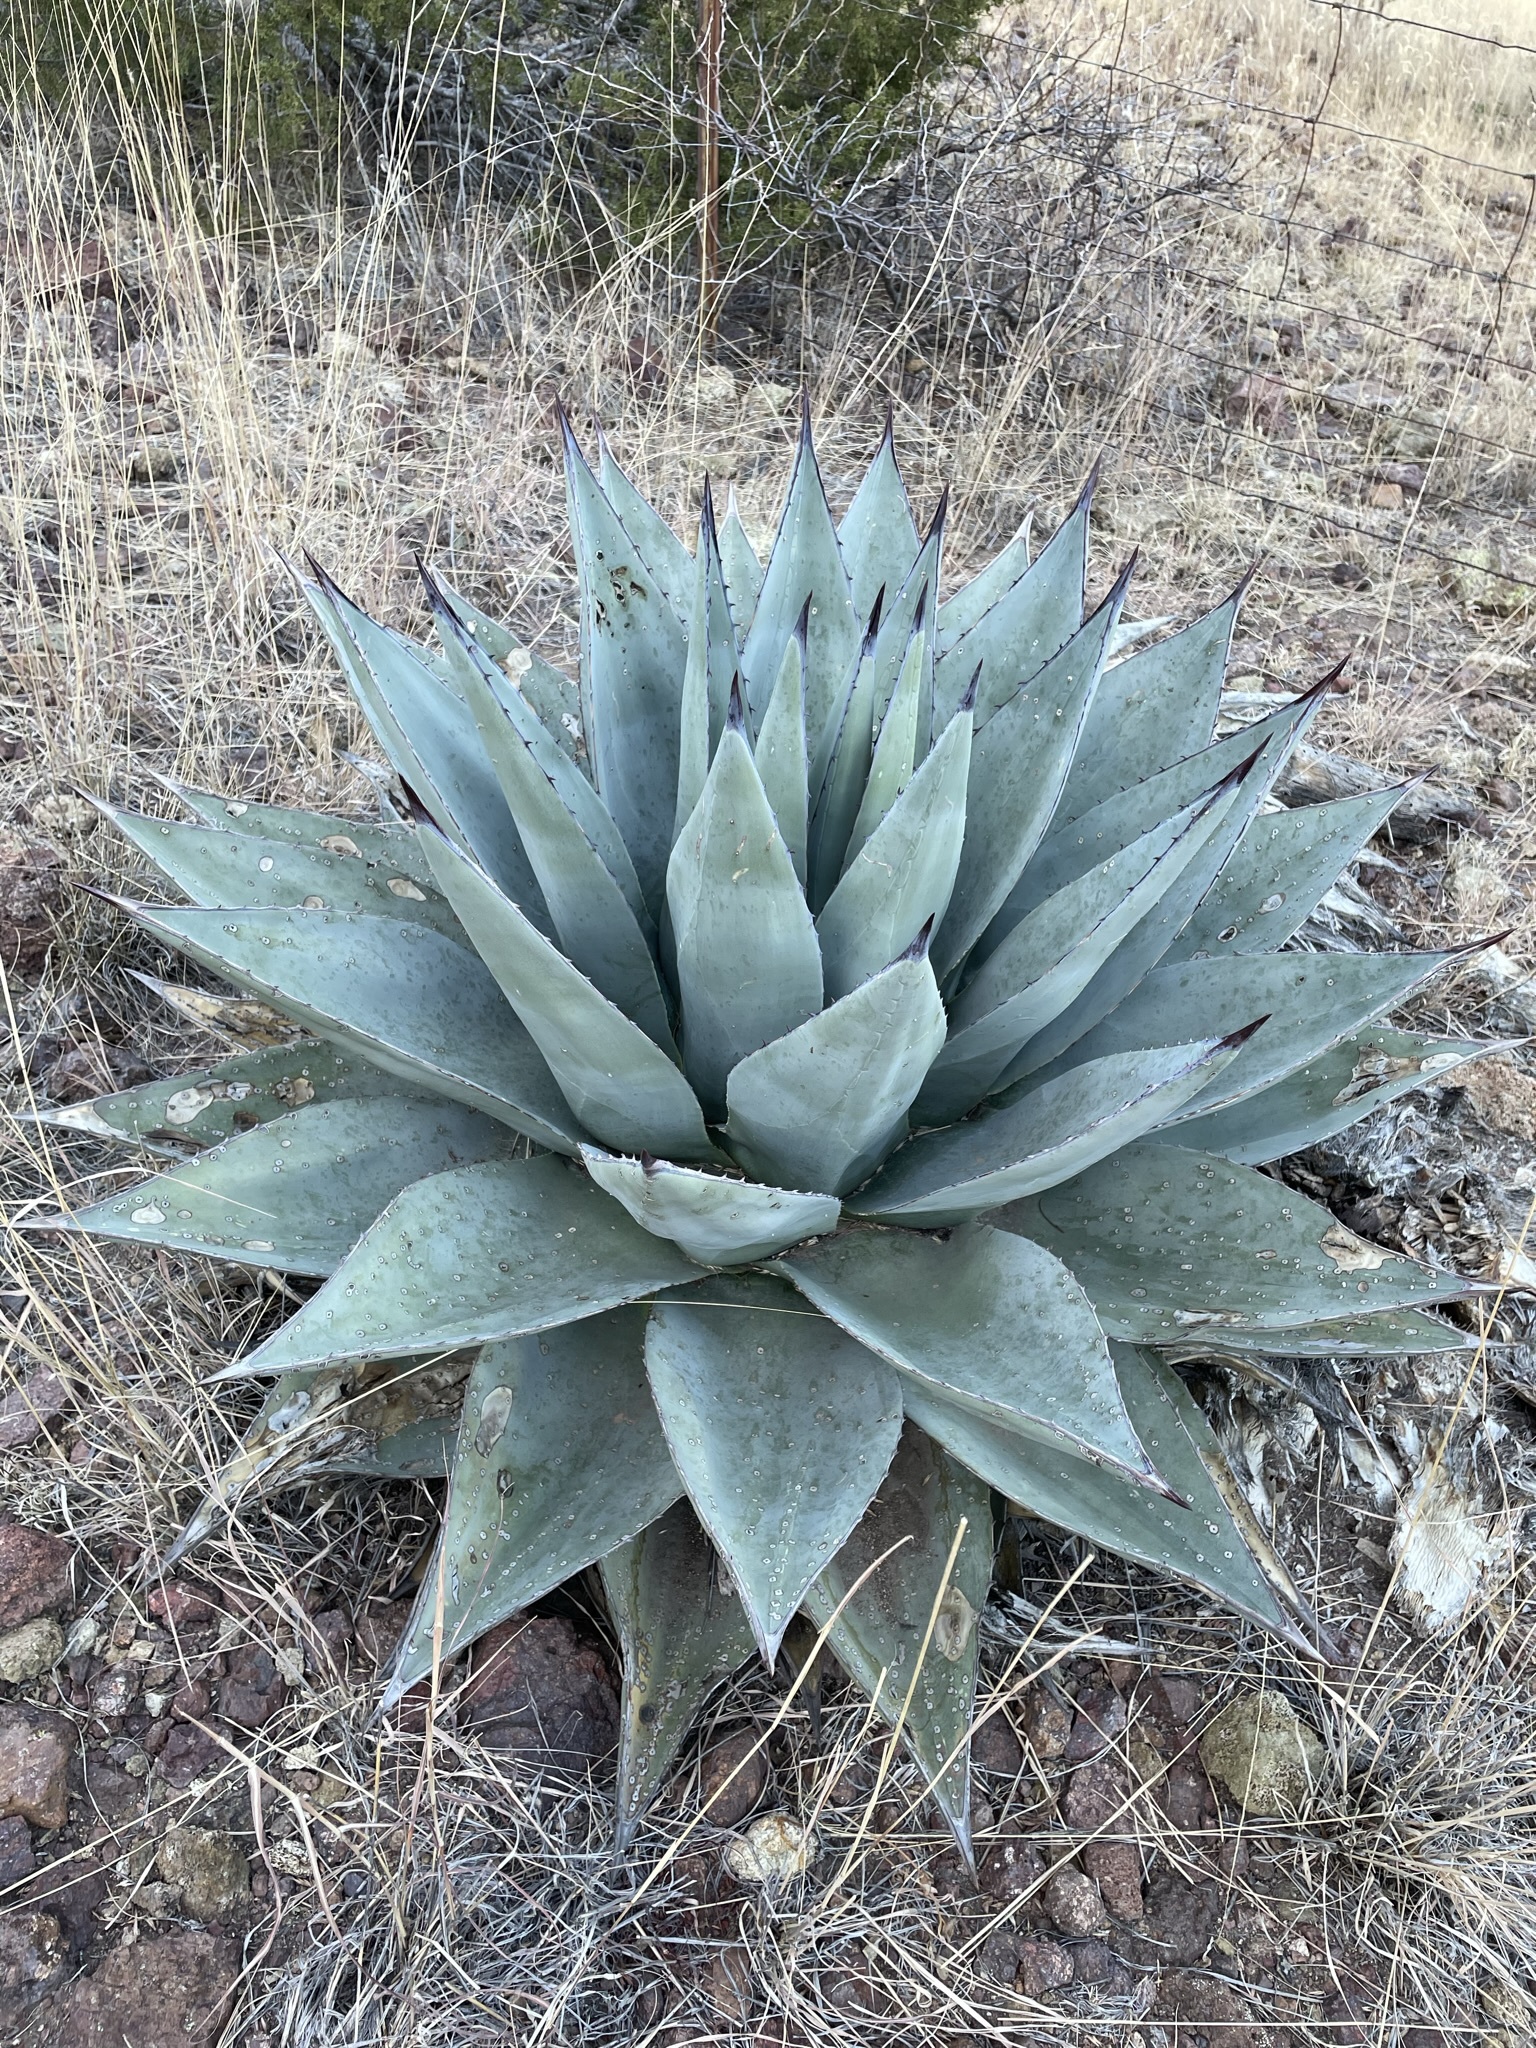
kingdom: Plantae
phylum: Tracheophyta
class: Liliopsida
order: Asparagales
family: Asparagaceae
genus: Agave
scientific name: Agave havardiana
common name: Havard agave
